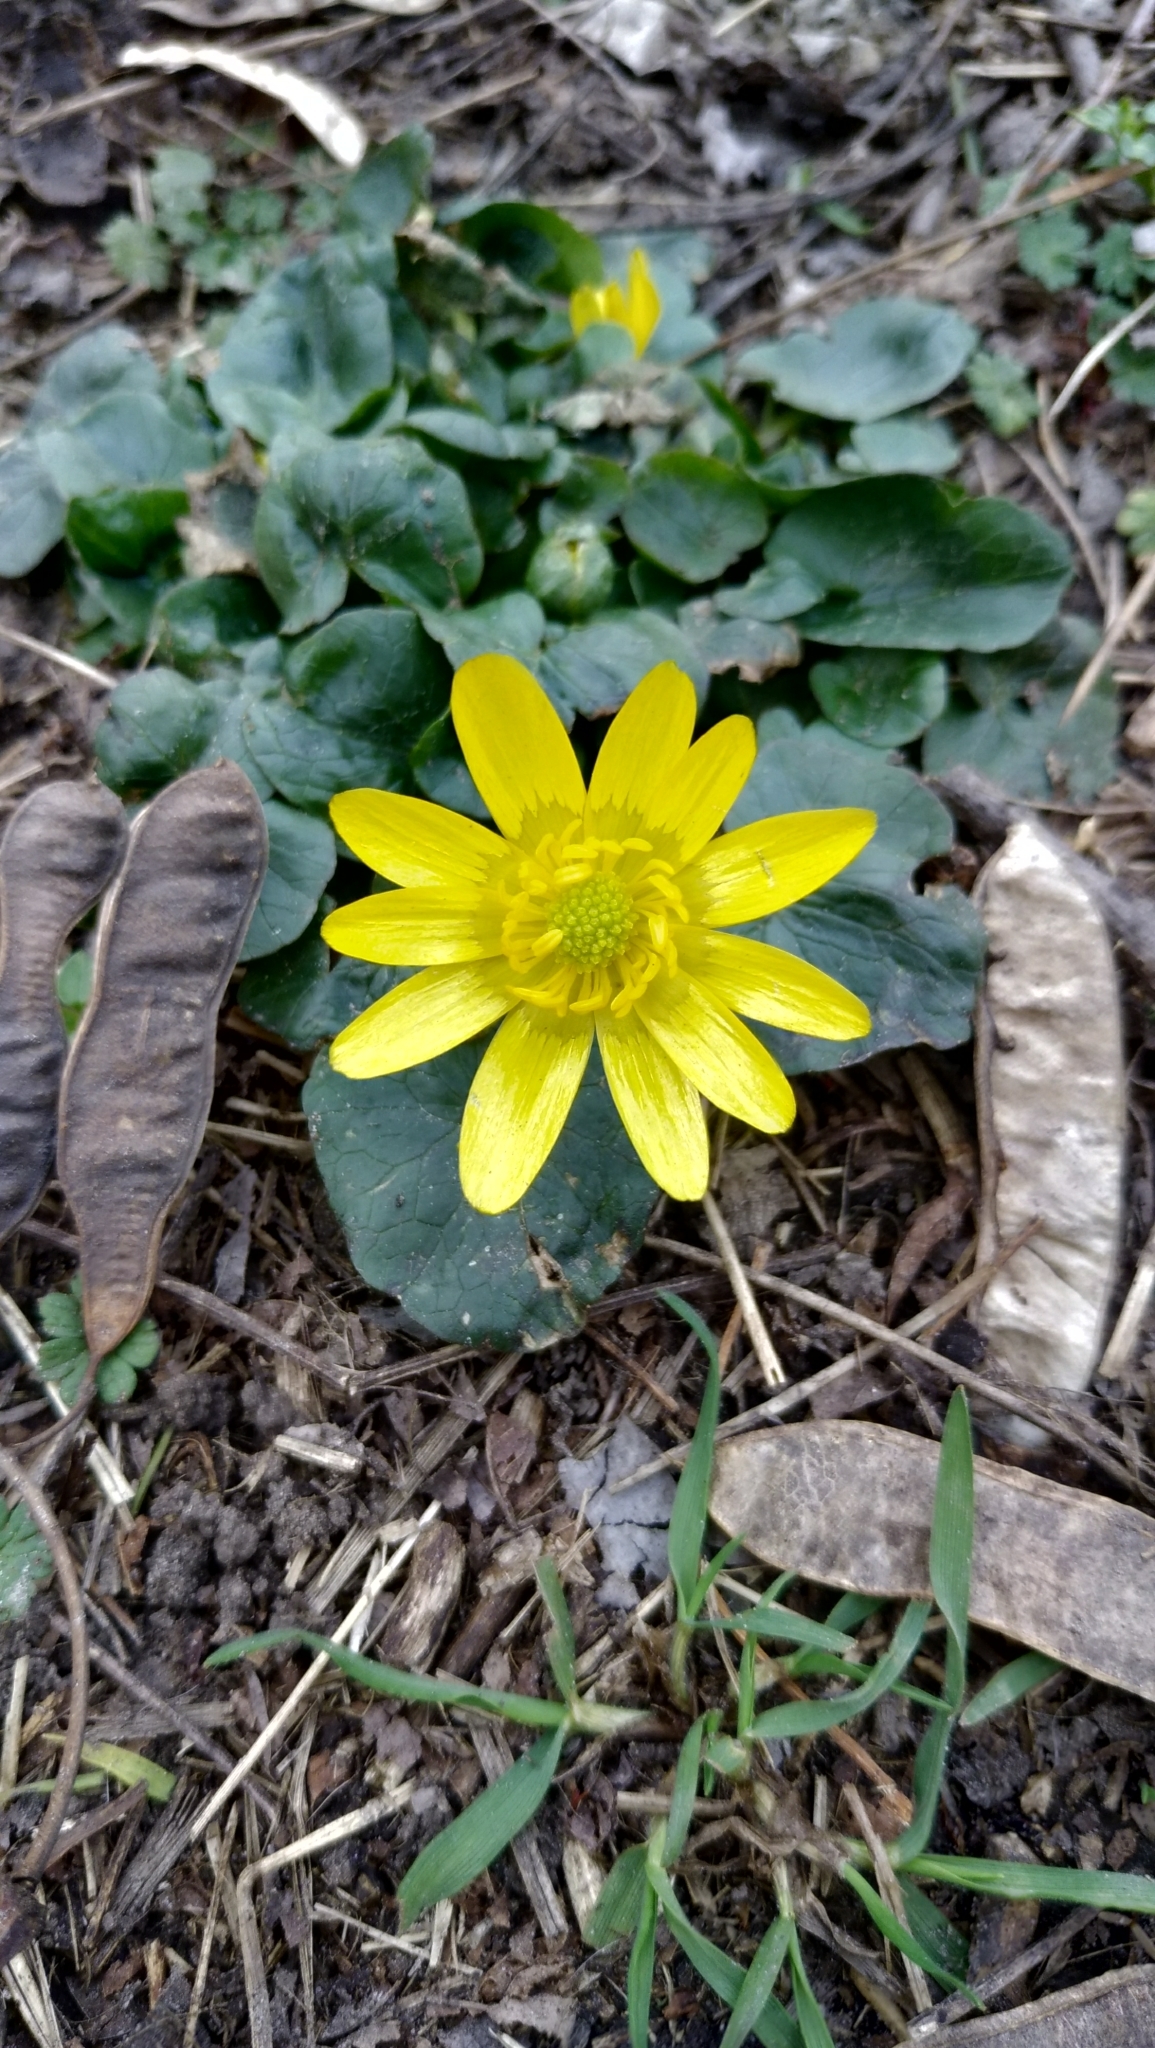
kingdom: Plantae
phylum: Tracheophyta
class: Magnoliopsida
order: Ranunculales
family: Ranunculaceae
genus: Ficaria
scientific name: Ficaria verna
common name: Lesser celandine
